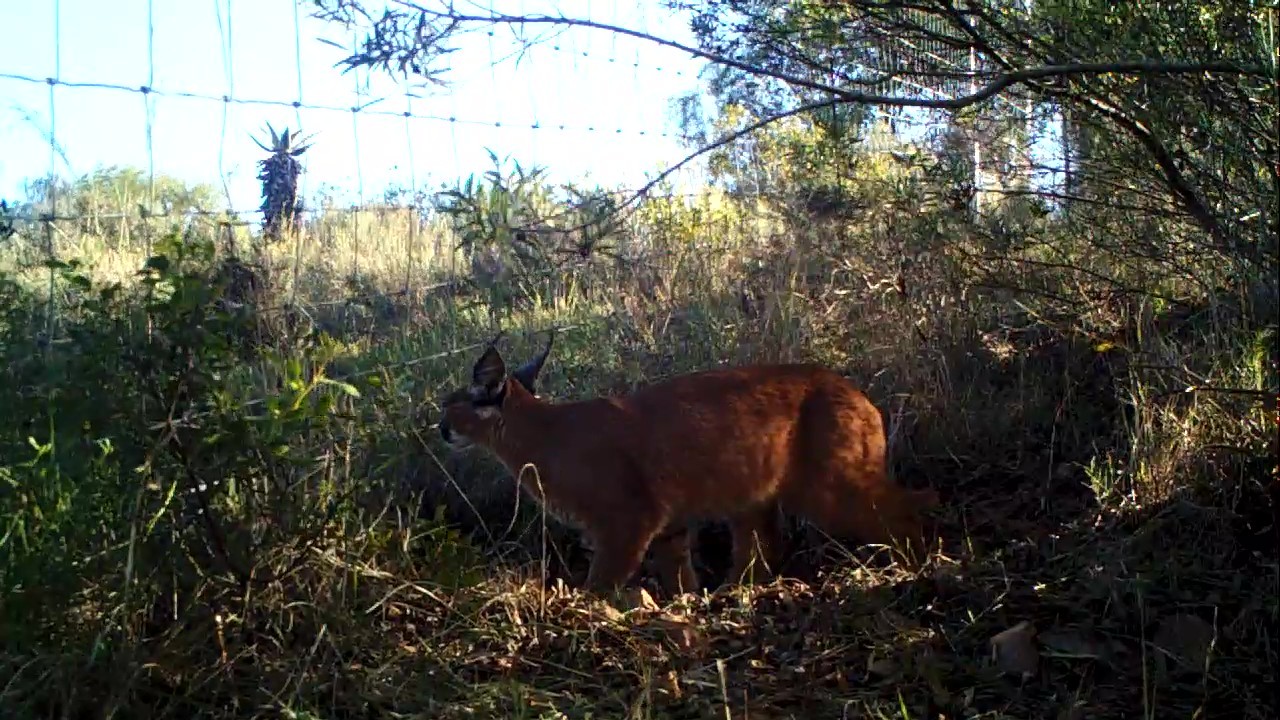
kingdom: Animalia
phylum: Chordata
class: Mammalia
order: Carnivora
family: Felidae
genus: Caracal
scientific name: Caracal caracal
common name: Caracal
